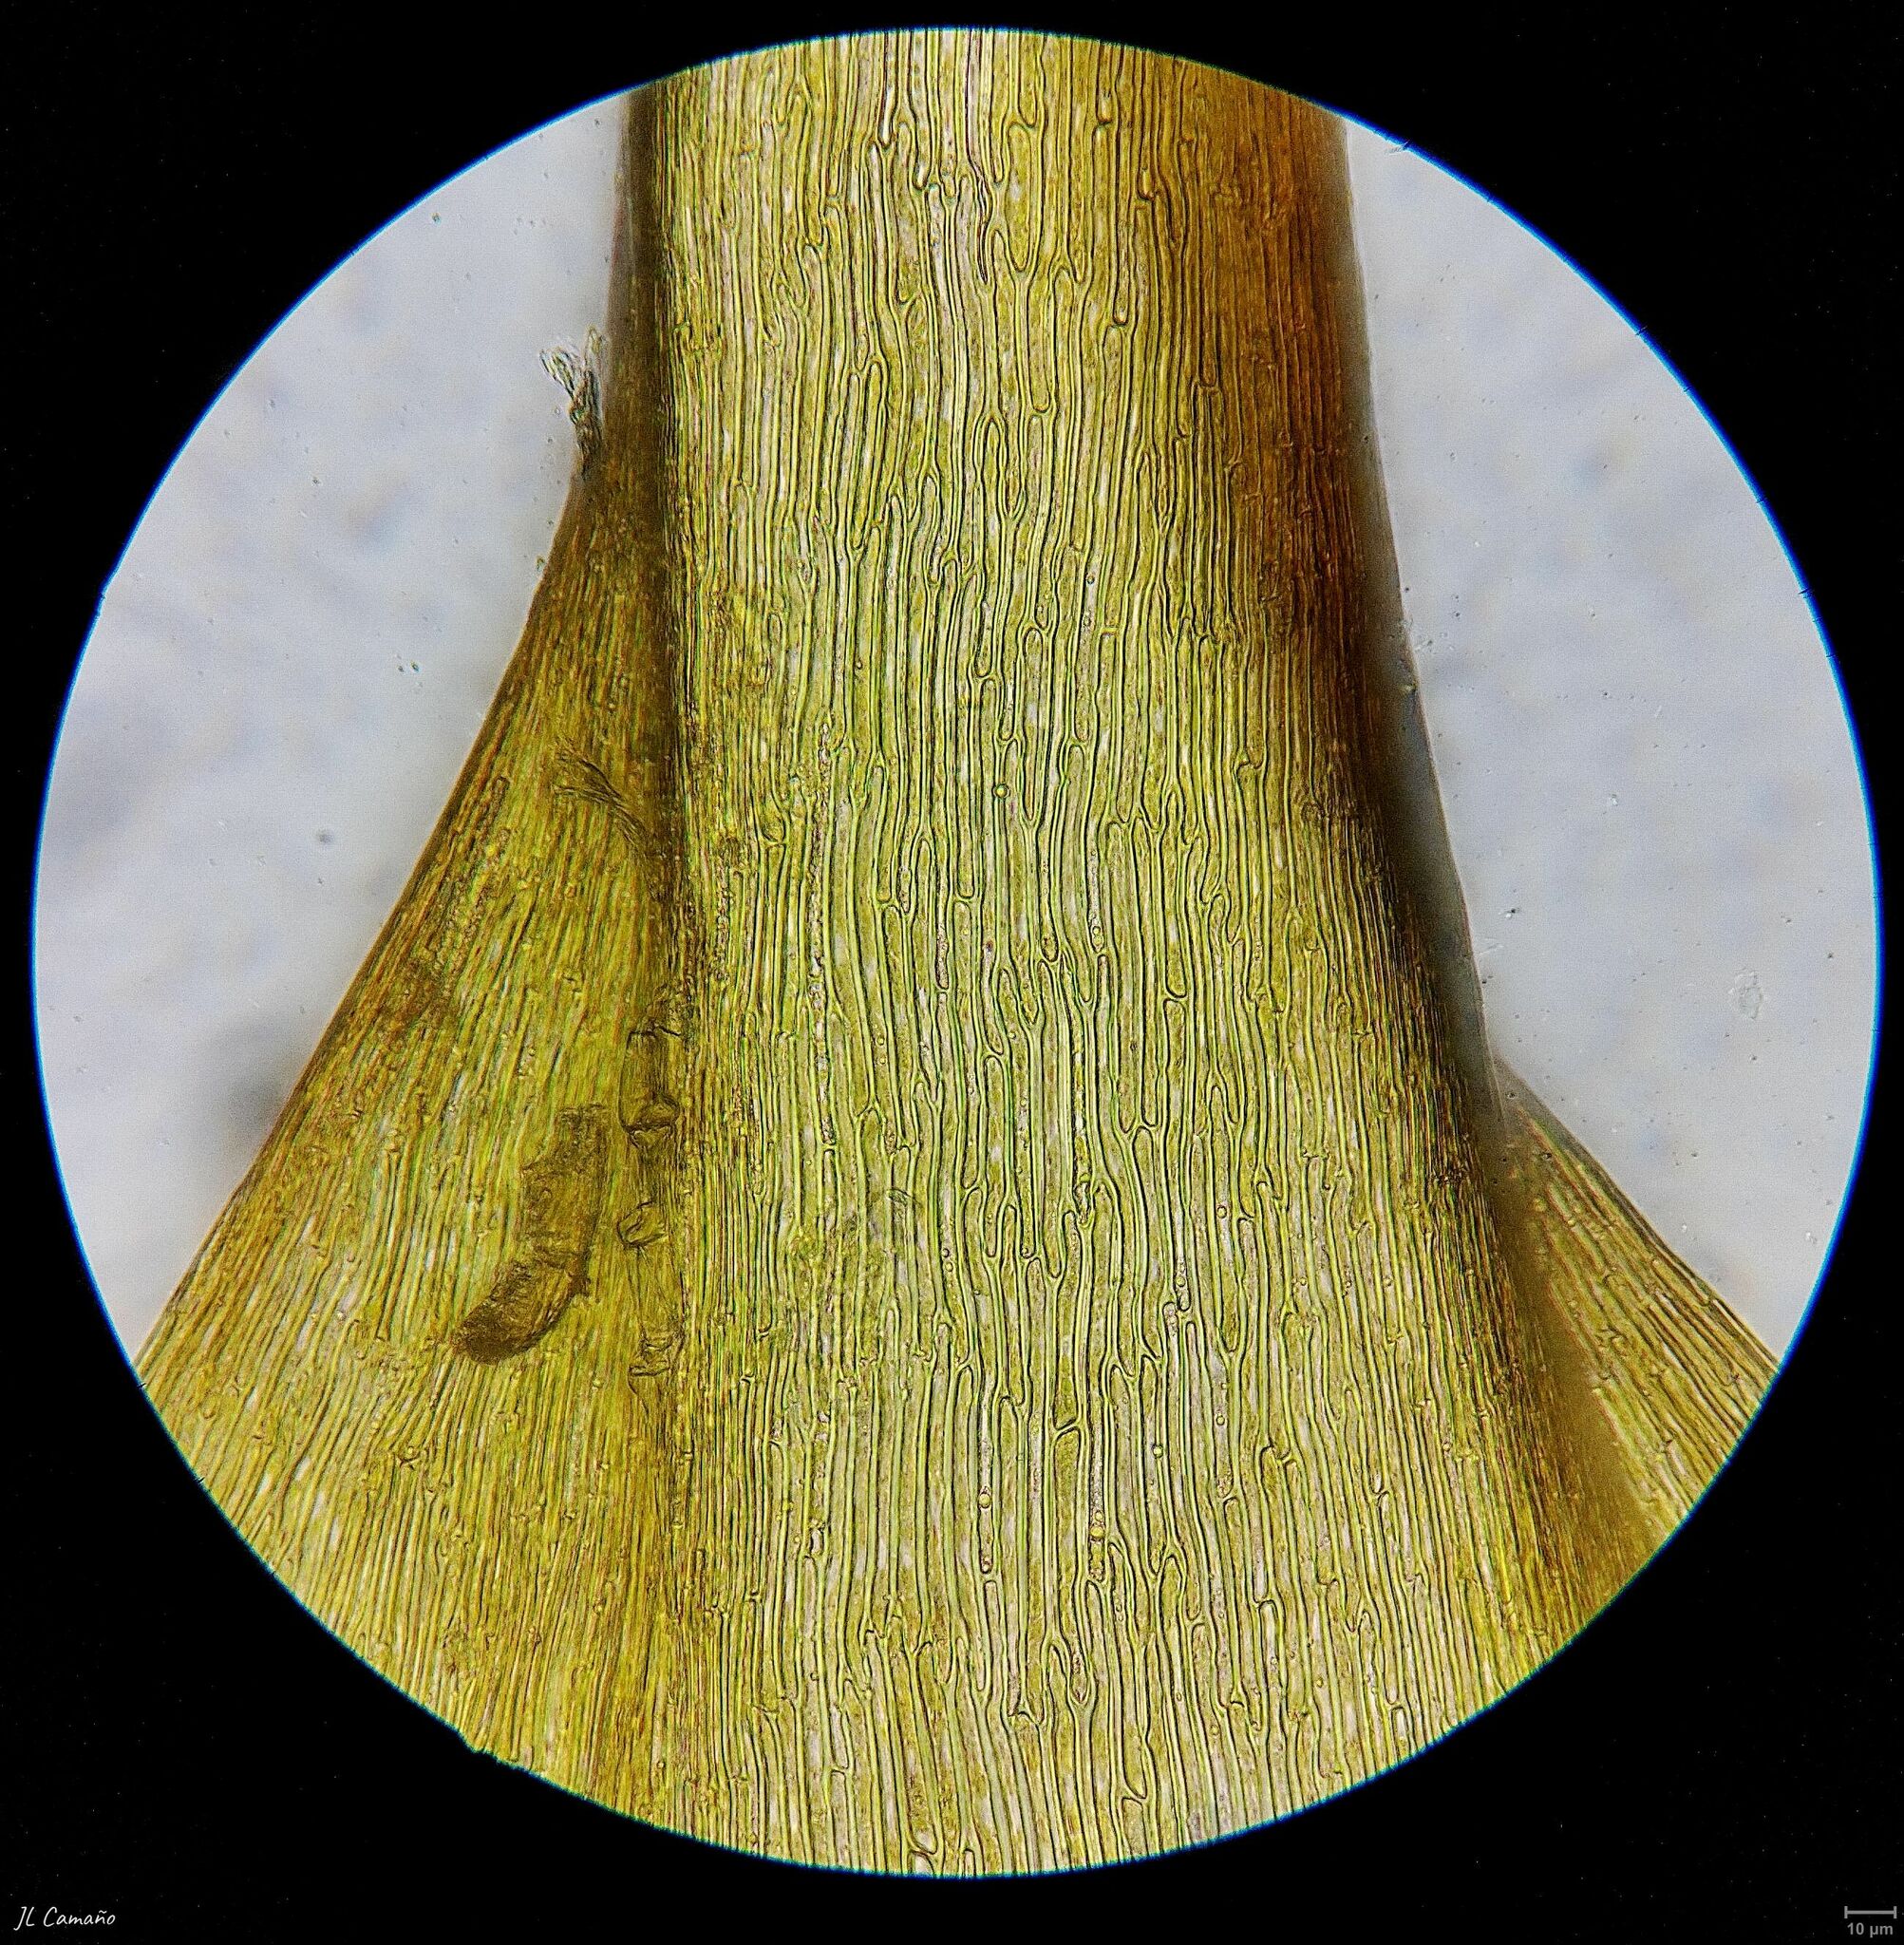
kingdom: Plantae
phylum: Bryophyta
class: Bryopsida
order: Hypnales
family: Amblystegiaceae
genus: Campylium
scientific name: Campylium protensum
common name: Dull starry fen moss
